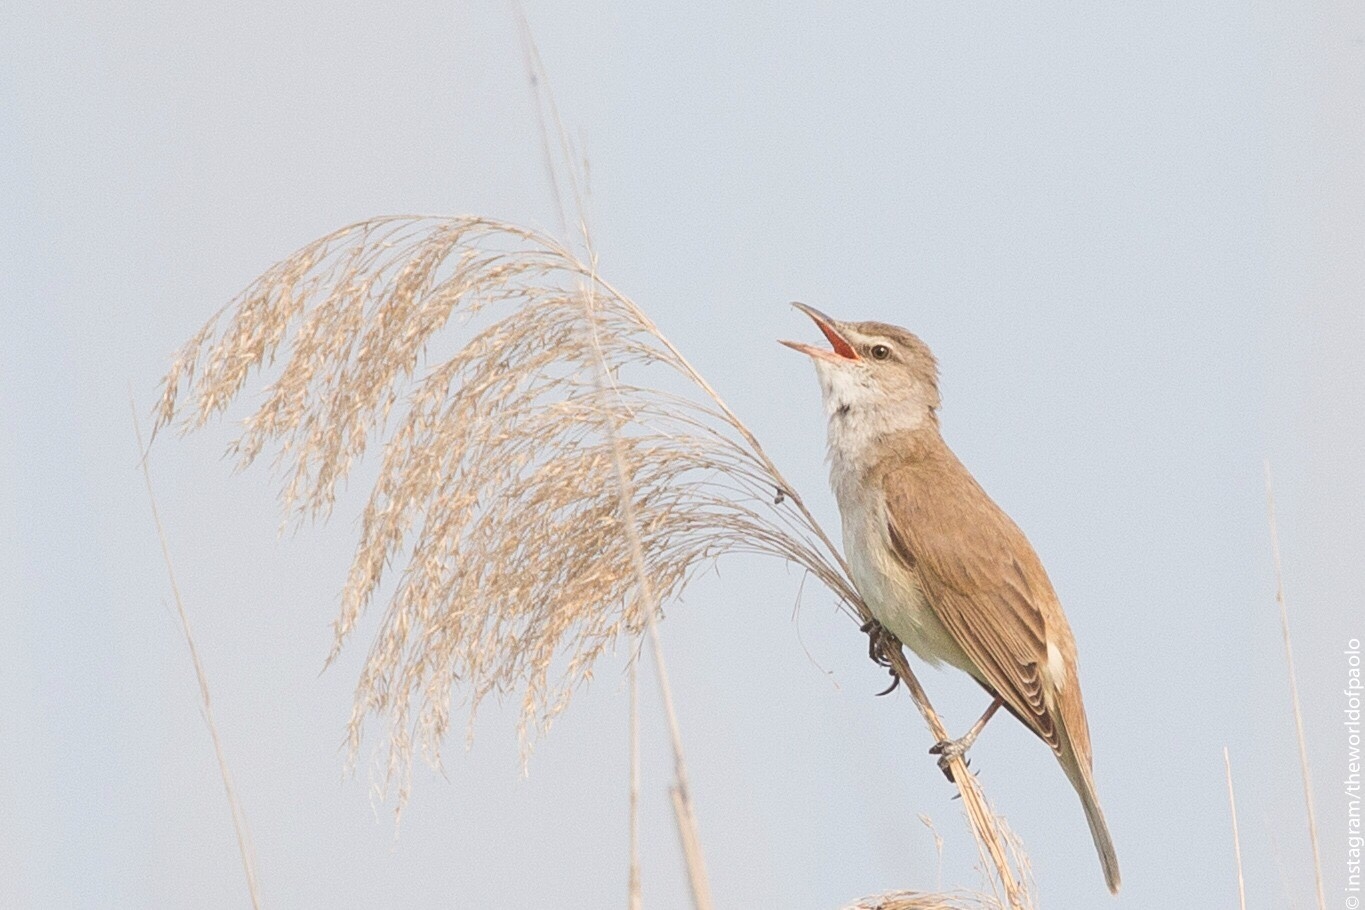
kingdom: Animalia
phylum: Chordata
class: Aves
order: Passeriformes
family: Acrocephalidae
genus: Acrocephalus
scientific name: Acrocephalus arundinaceus
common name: Great reed warbler
